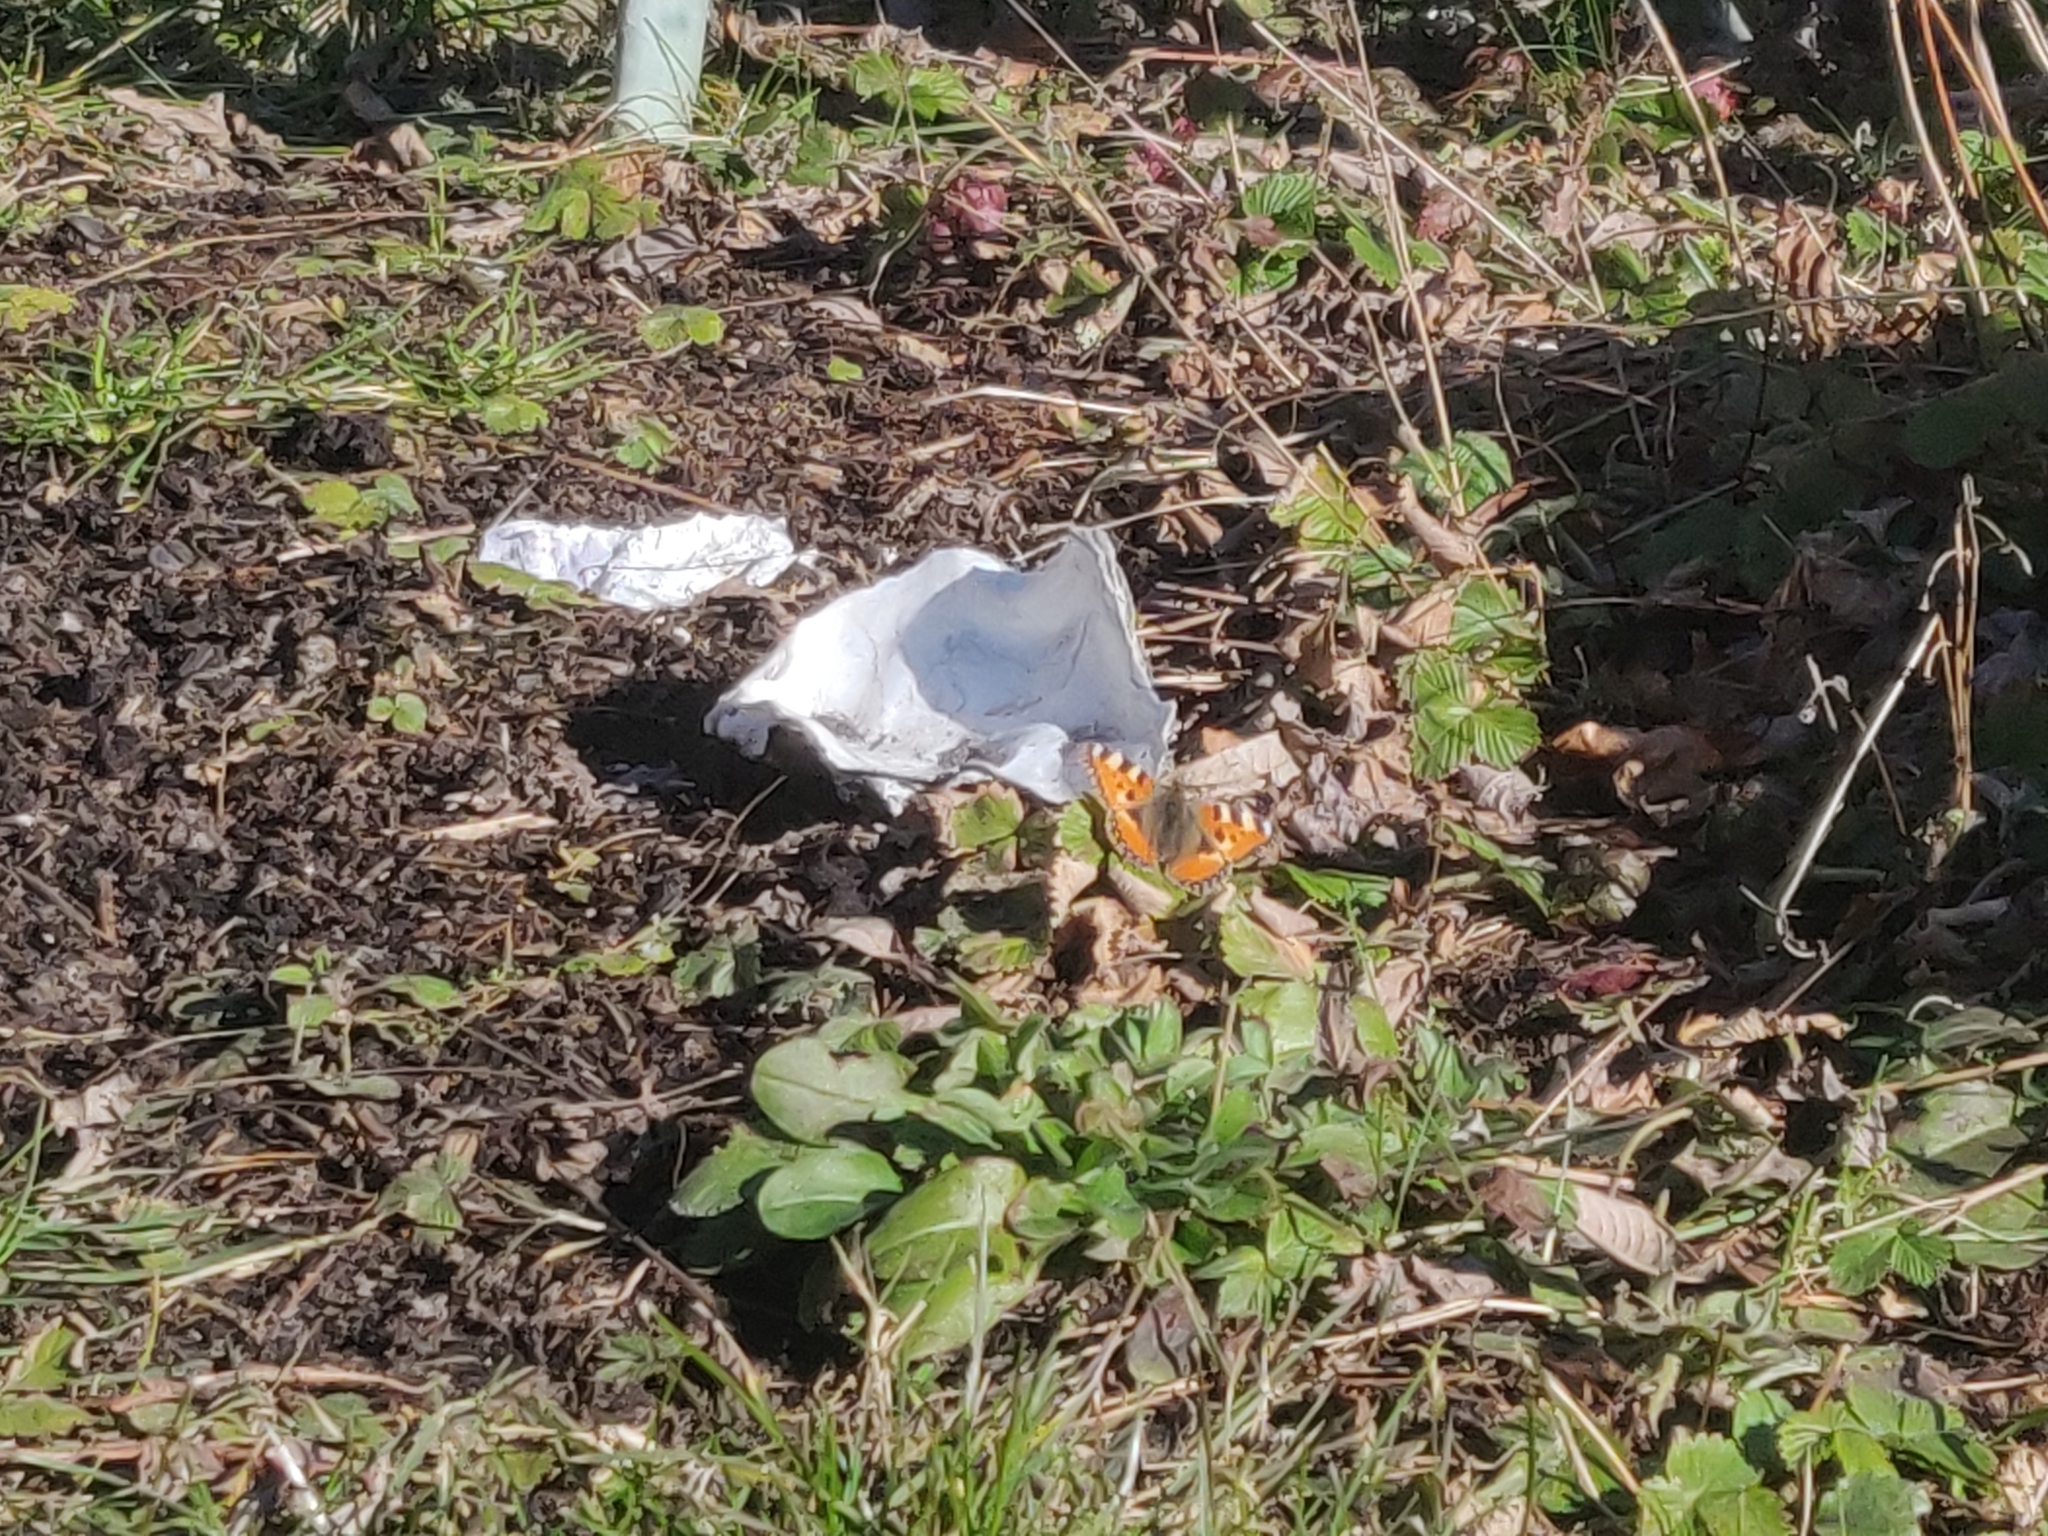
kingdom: Animalia
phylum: Arthropoda
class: Insecta
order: Lepidoptera
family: Nymphalidae
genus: Aglais
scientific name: Aglais urticae
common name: Small tortoiseshell
